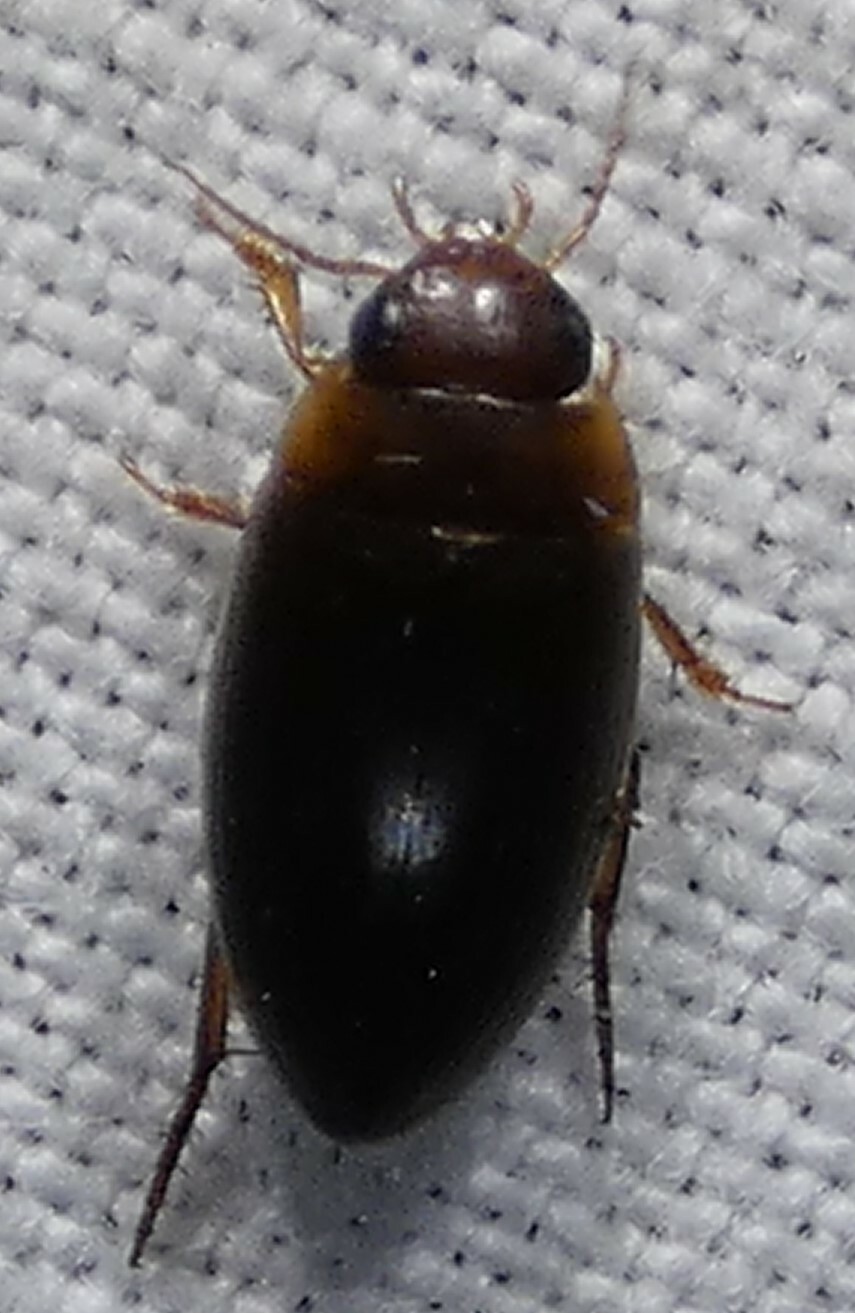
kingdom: Animalia
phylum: Arthropoda
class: Insecta
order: Coleoptera
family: Dytiscidae
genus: Copelatus
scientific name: Copelatus chevrolati
